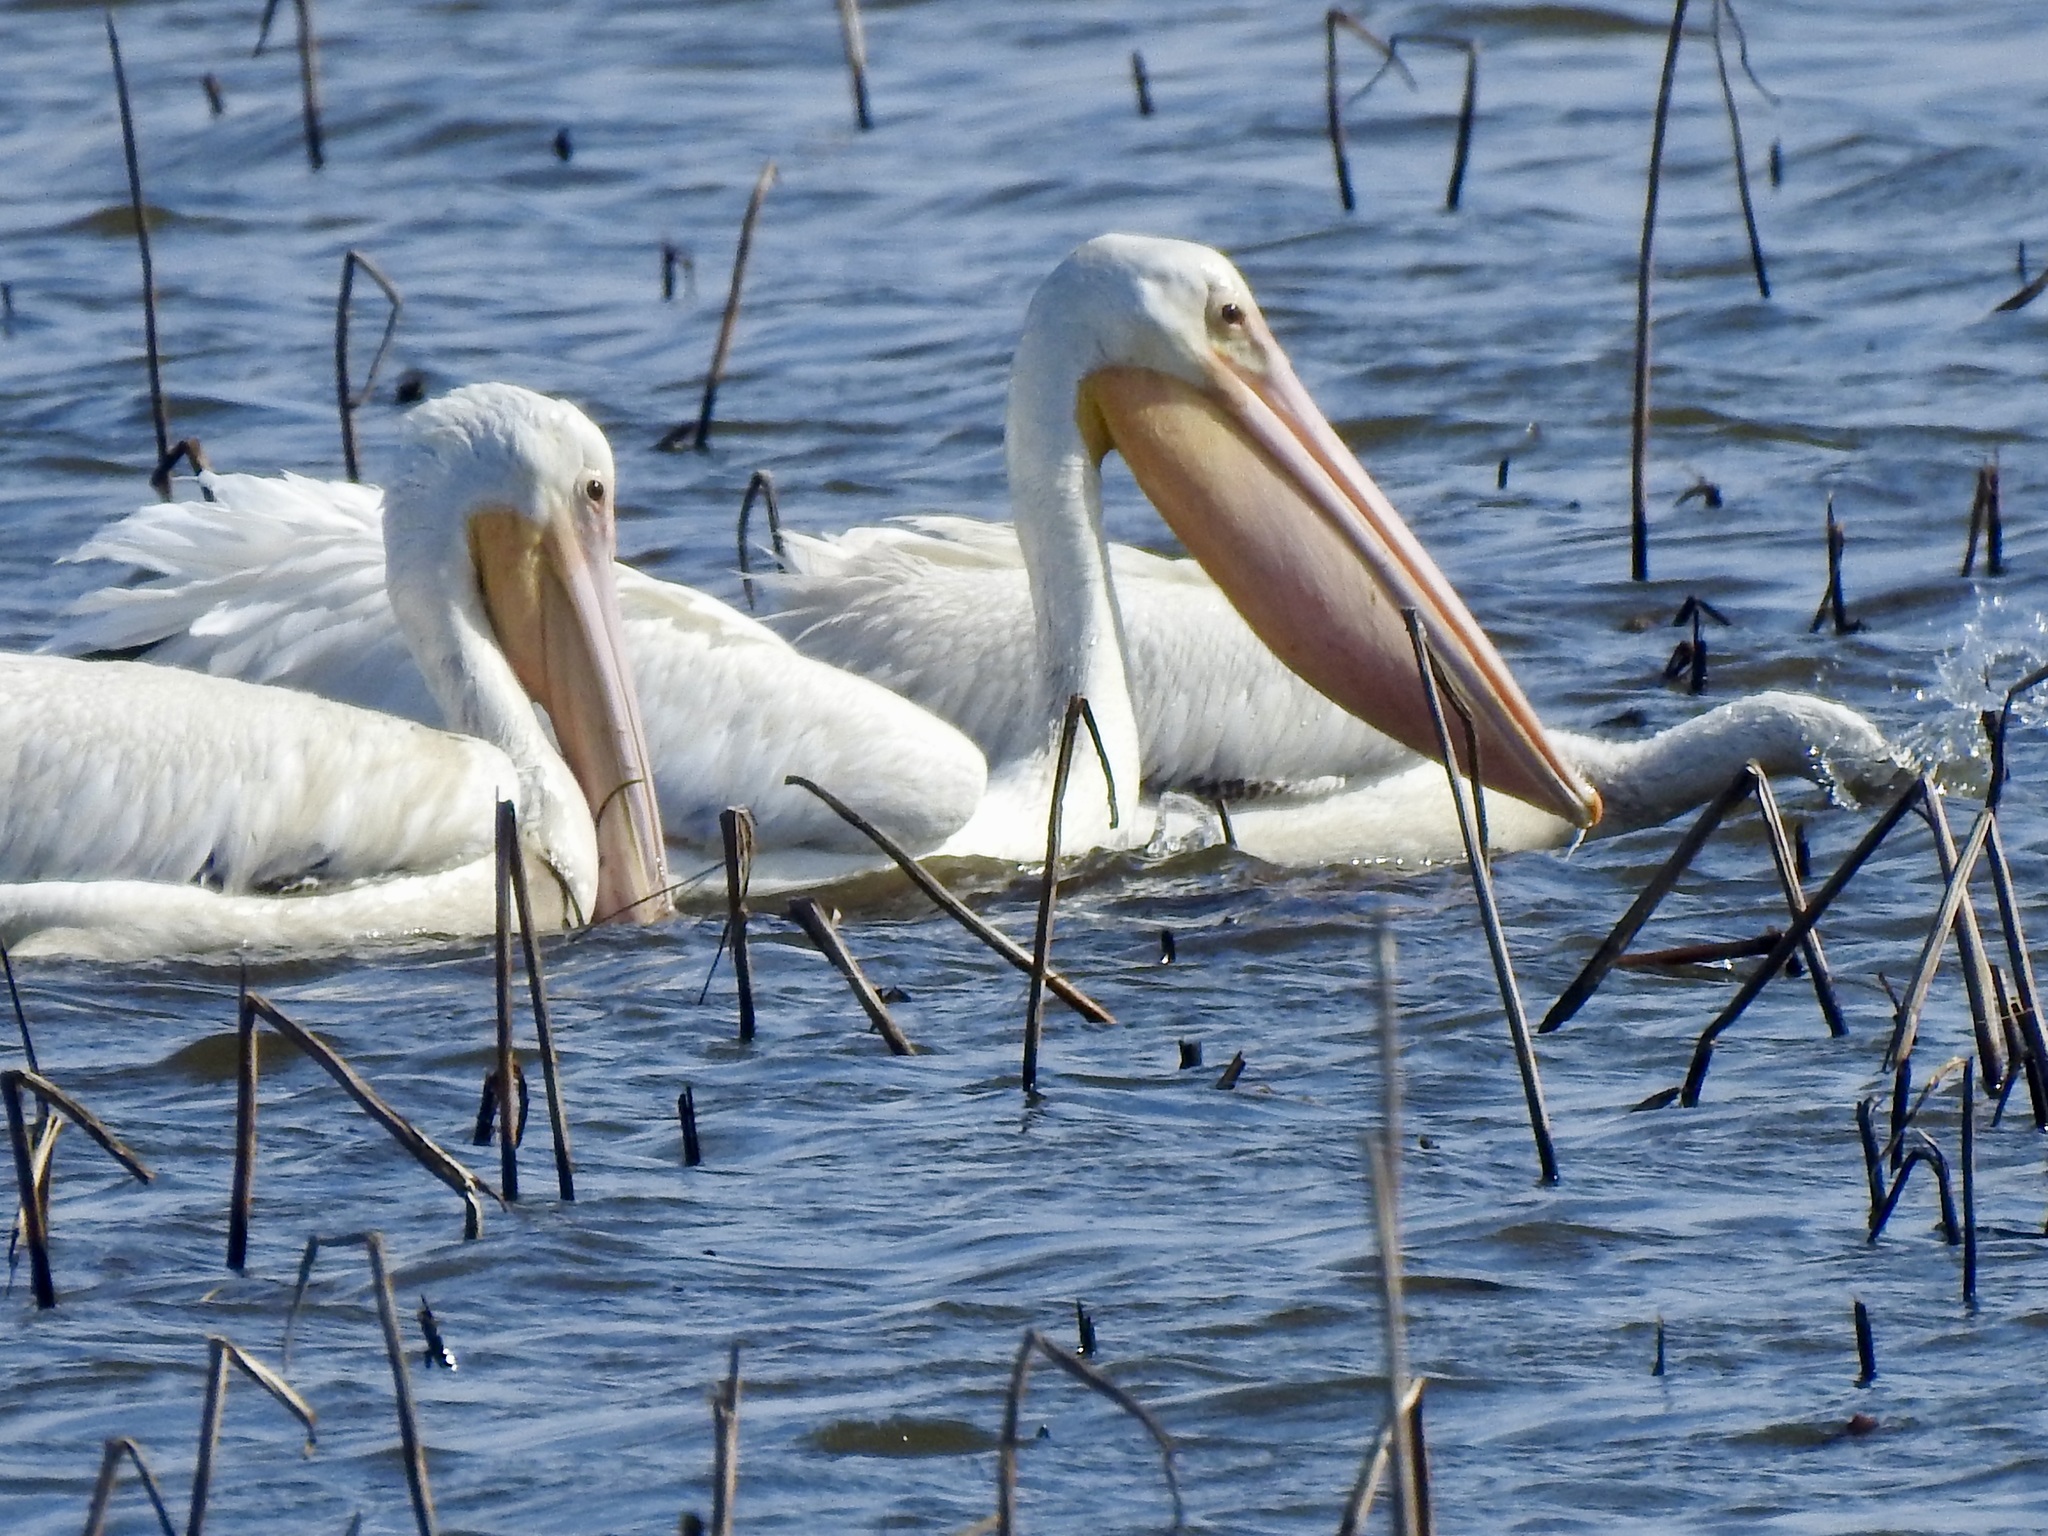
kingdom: Animalia
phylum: Chordata
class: Aves
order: Pelecaniformes
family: Pelecanidae
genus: Pelecanus
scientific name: Pelecanus erythrorhynchos
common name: American white pelican
